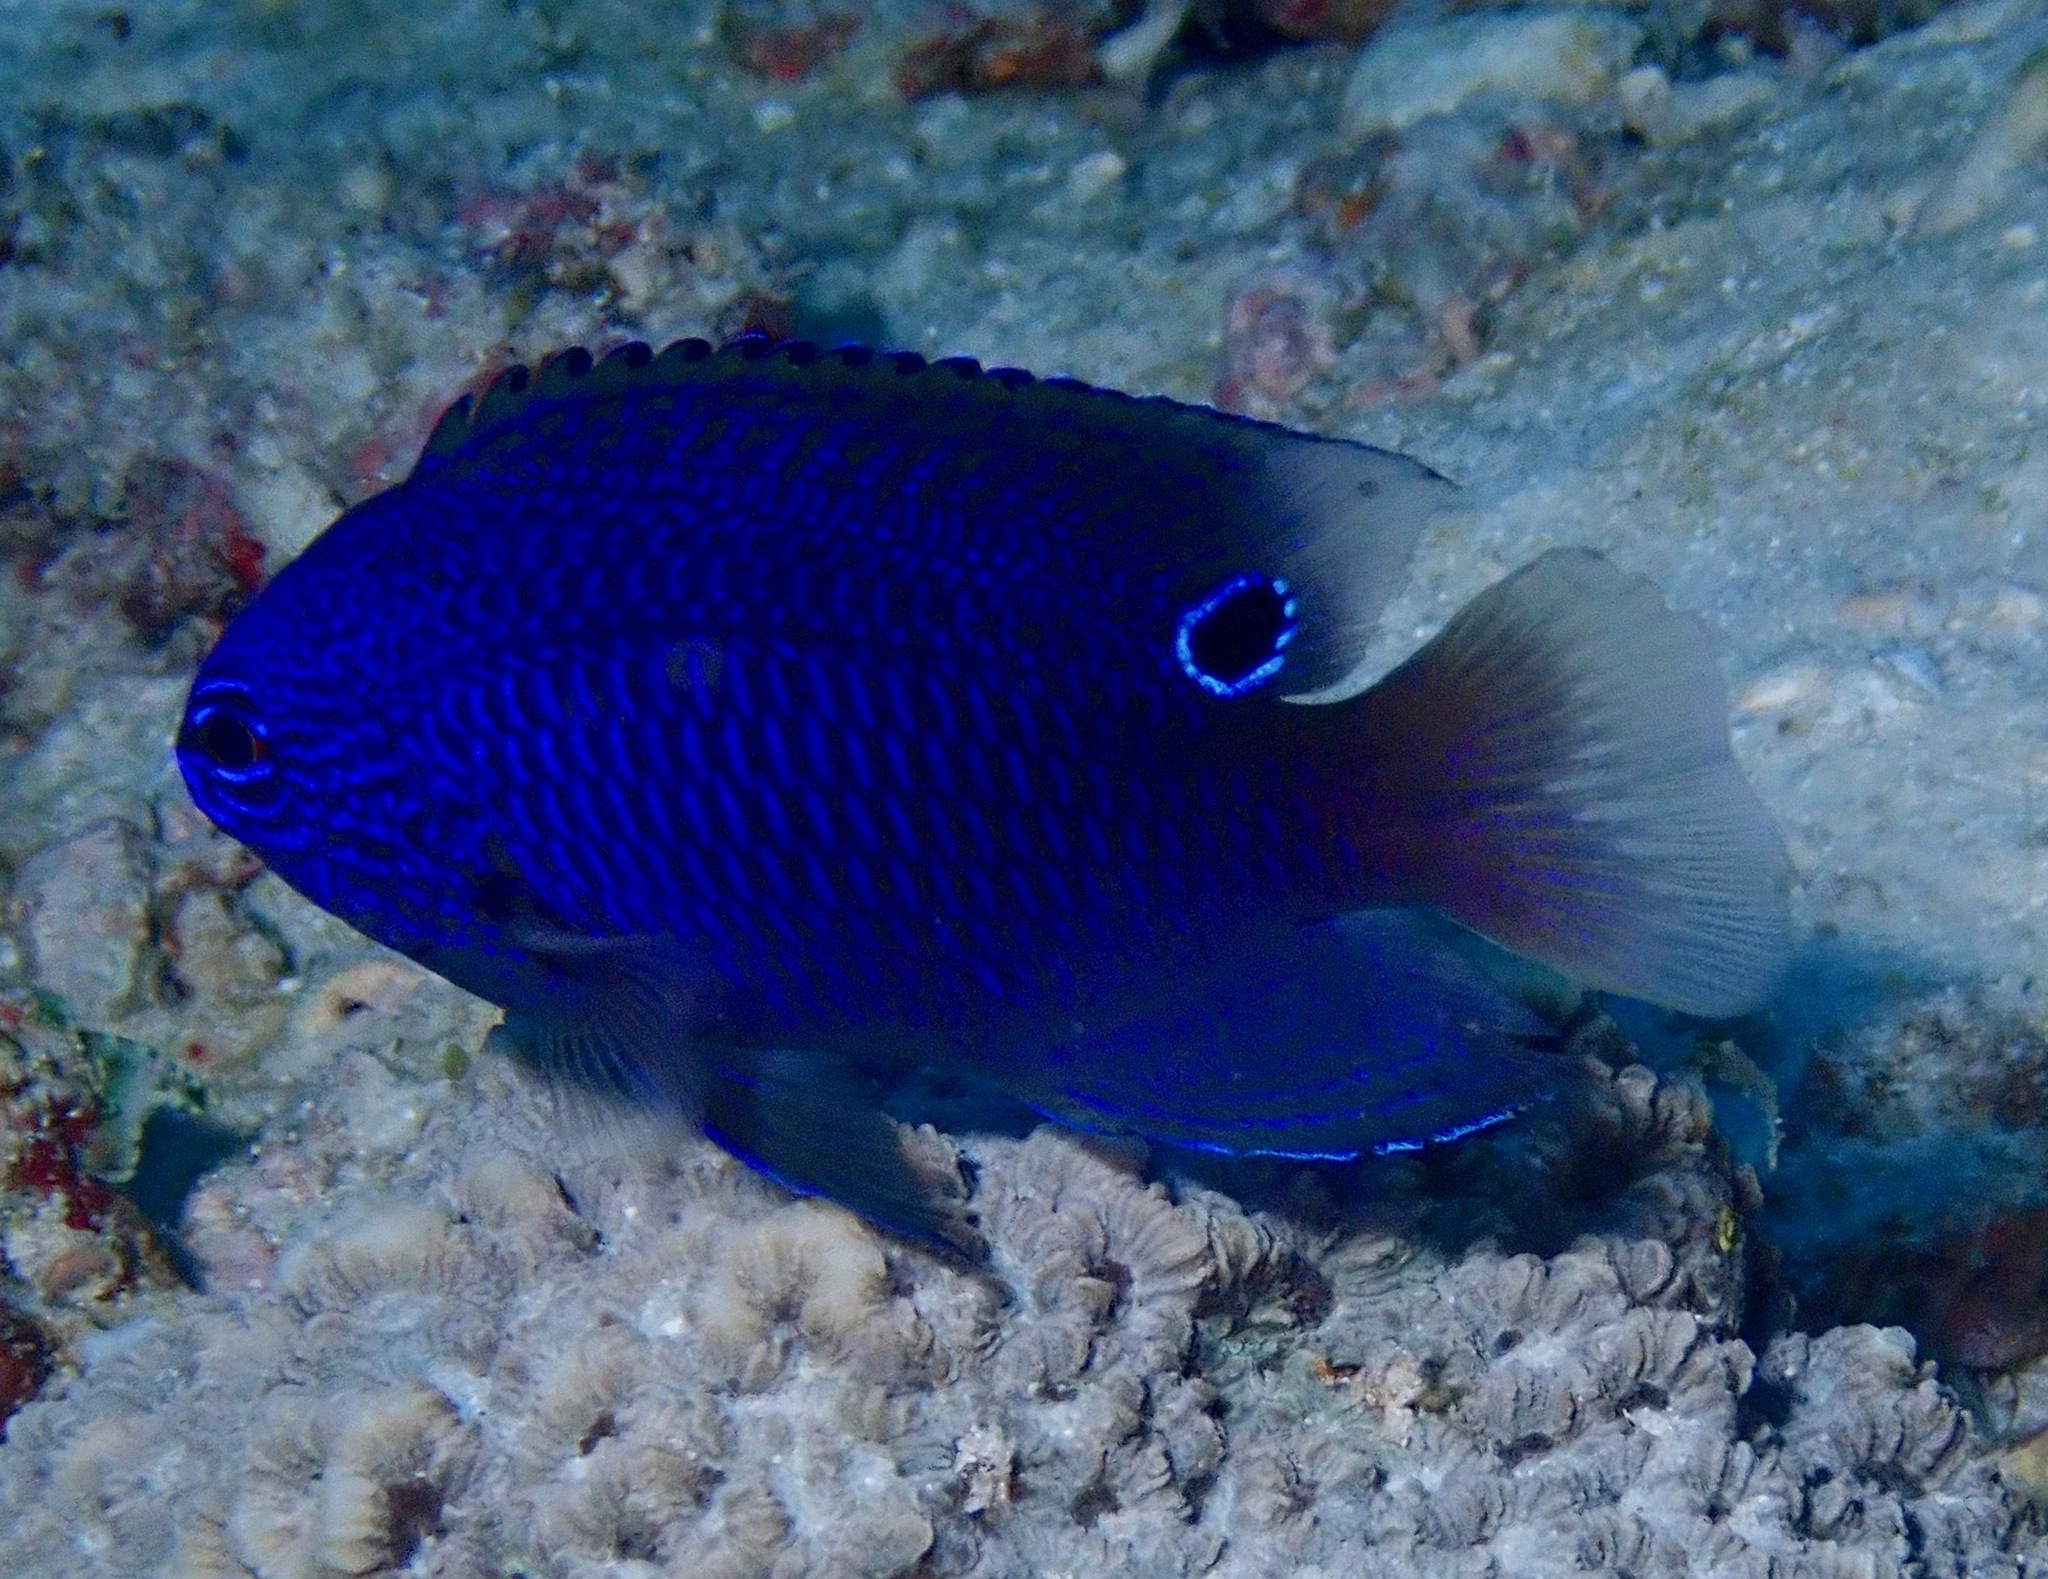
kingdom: Animalia
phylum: Chordata
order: Perciformes
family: Pomacentridae
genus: Pomacentrus
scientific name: Pomacentrus nagasakiensis
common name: Nagasaki damsel
